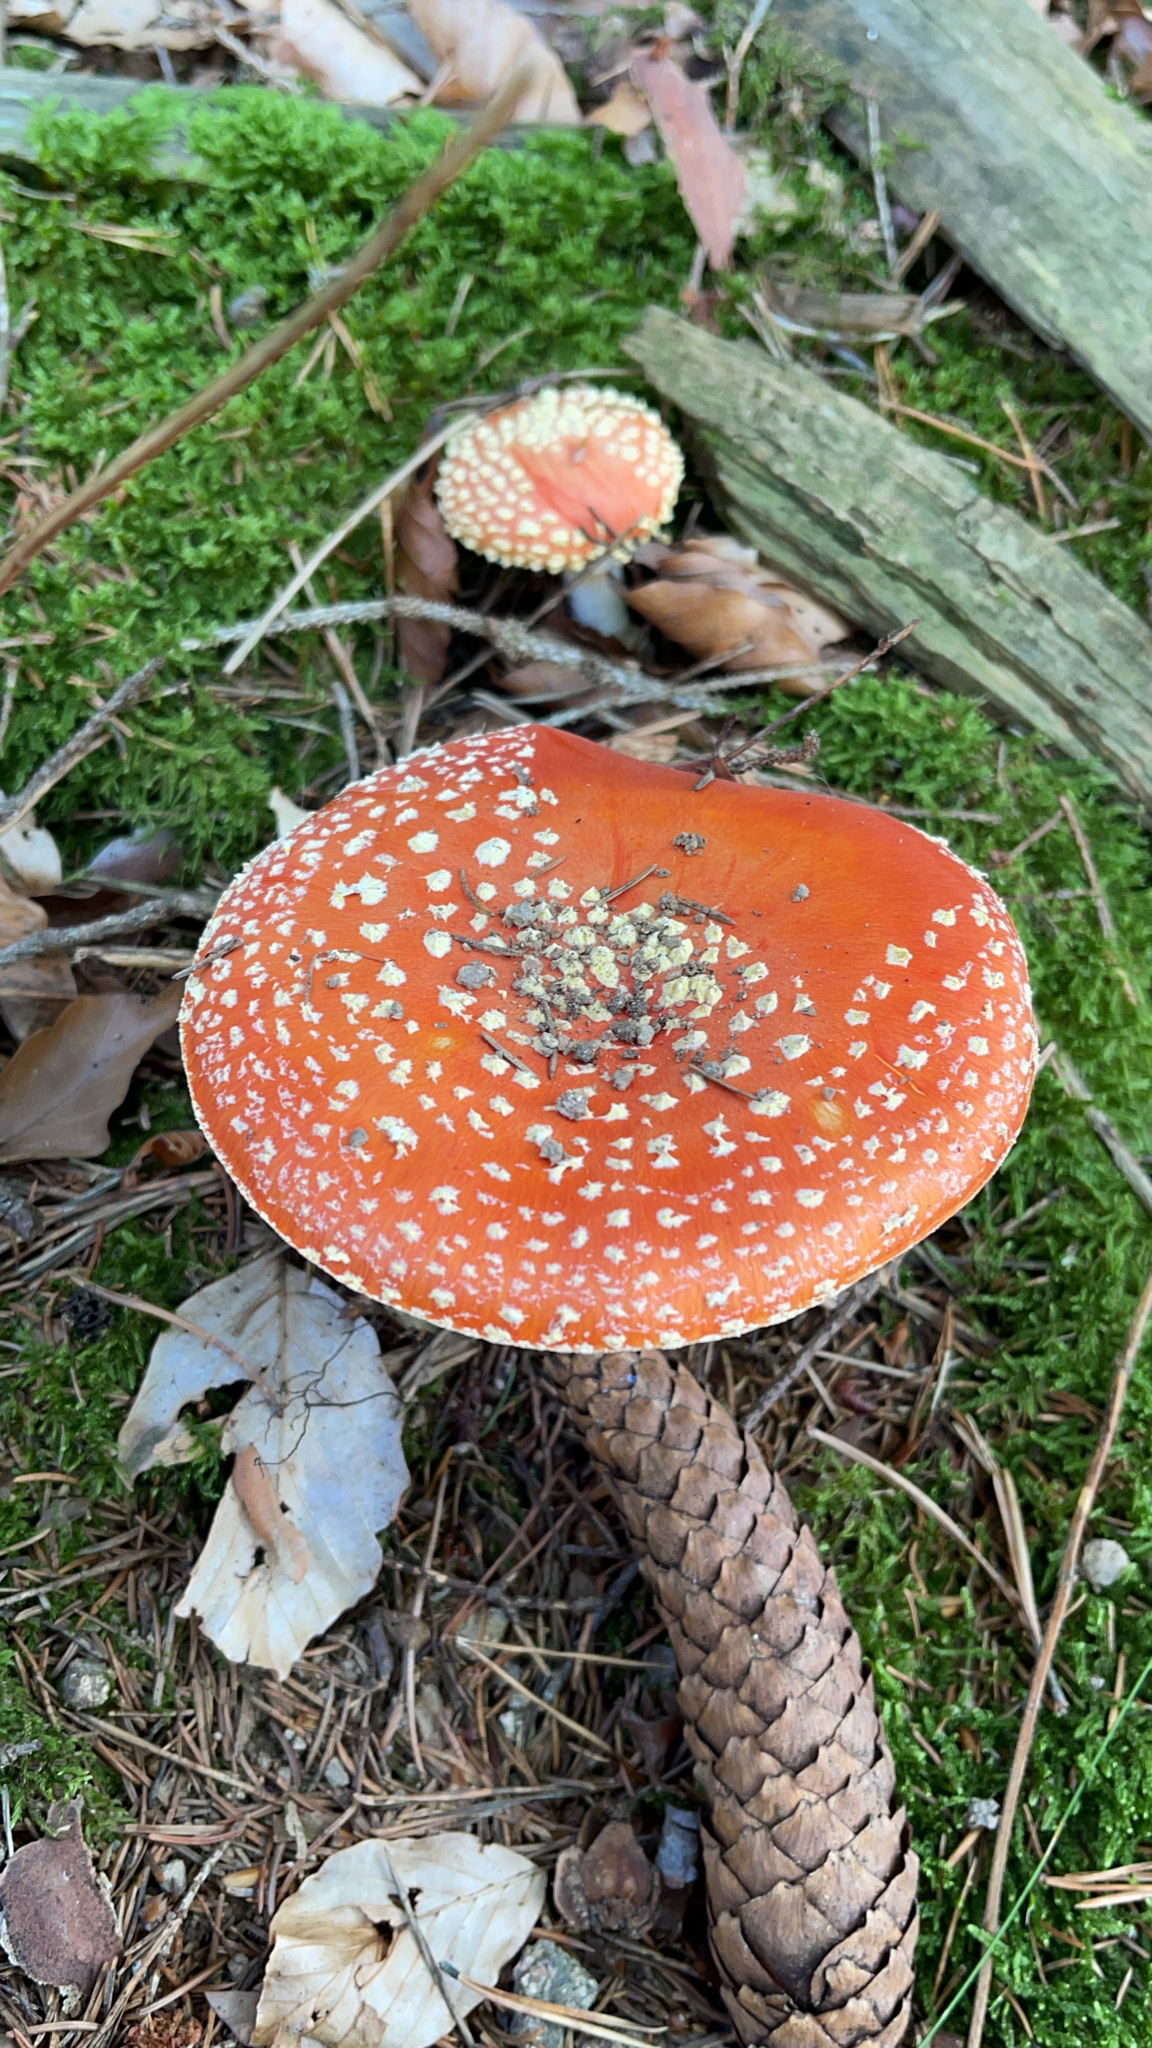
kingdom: Fungi
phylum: Basidiomycota
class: Agaricomycetes
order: Agaricales
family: Amanitaceae
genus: Amanita
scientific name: Amanita muscaria
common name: Fly agaric
